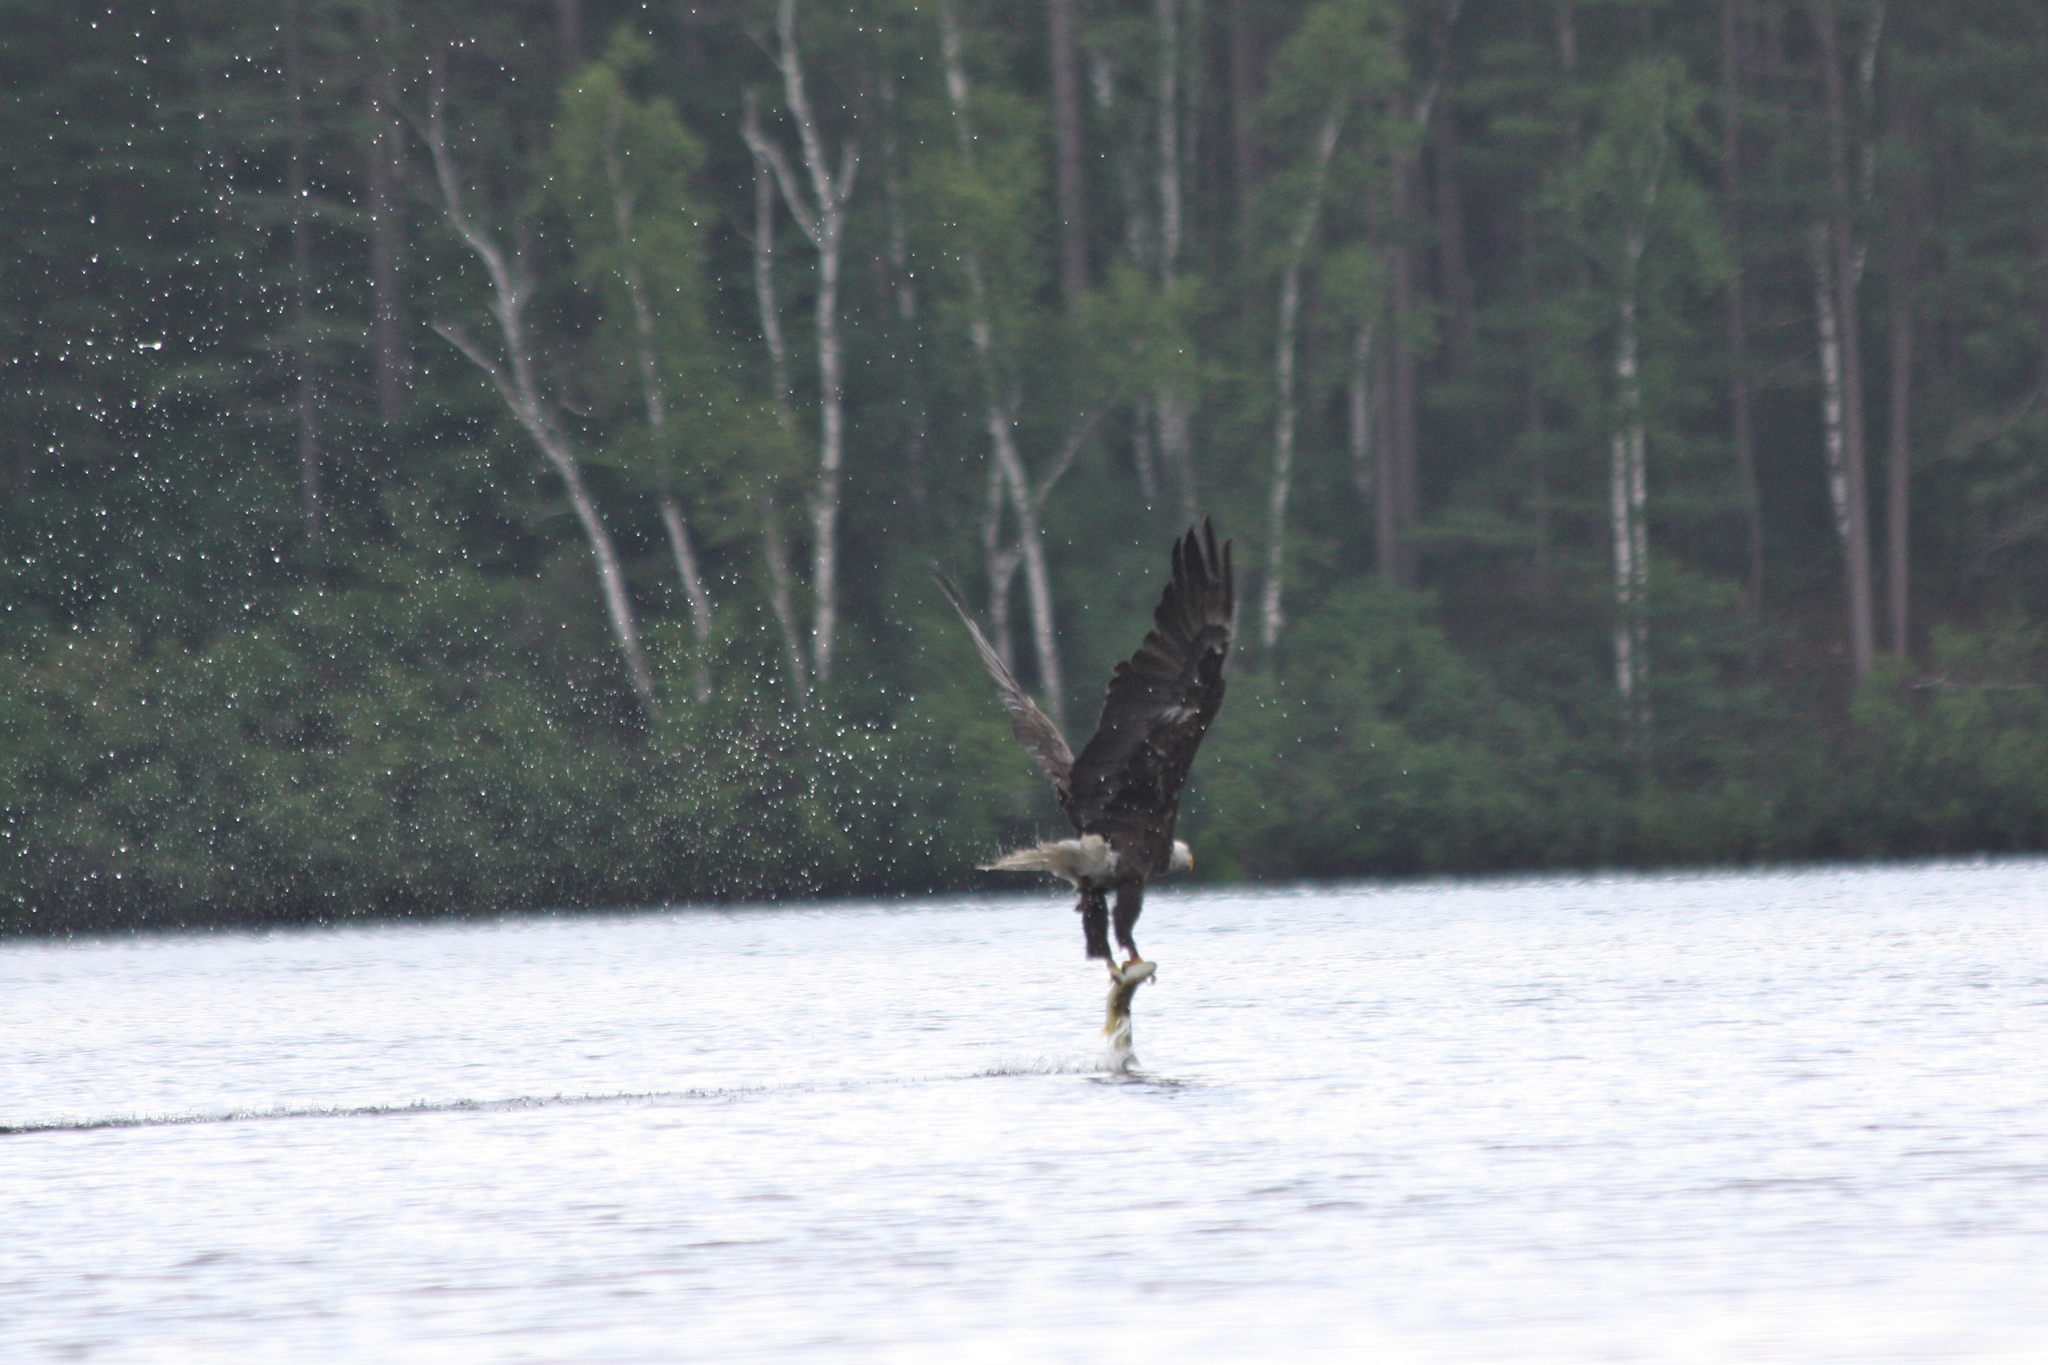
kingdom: Animalia
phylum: Chordata
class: Aves
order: Accipitriformes
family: Accipitridae
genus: Haliaeetus
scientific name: Haliaeetus leucocephalus
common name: Bald eagle
